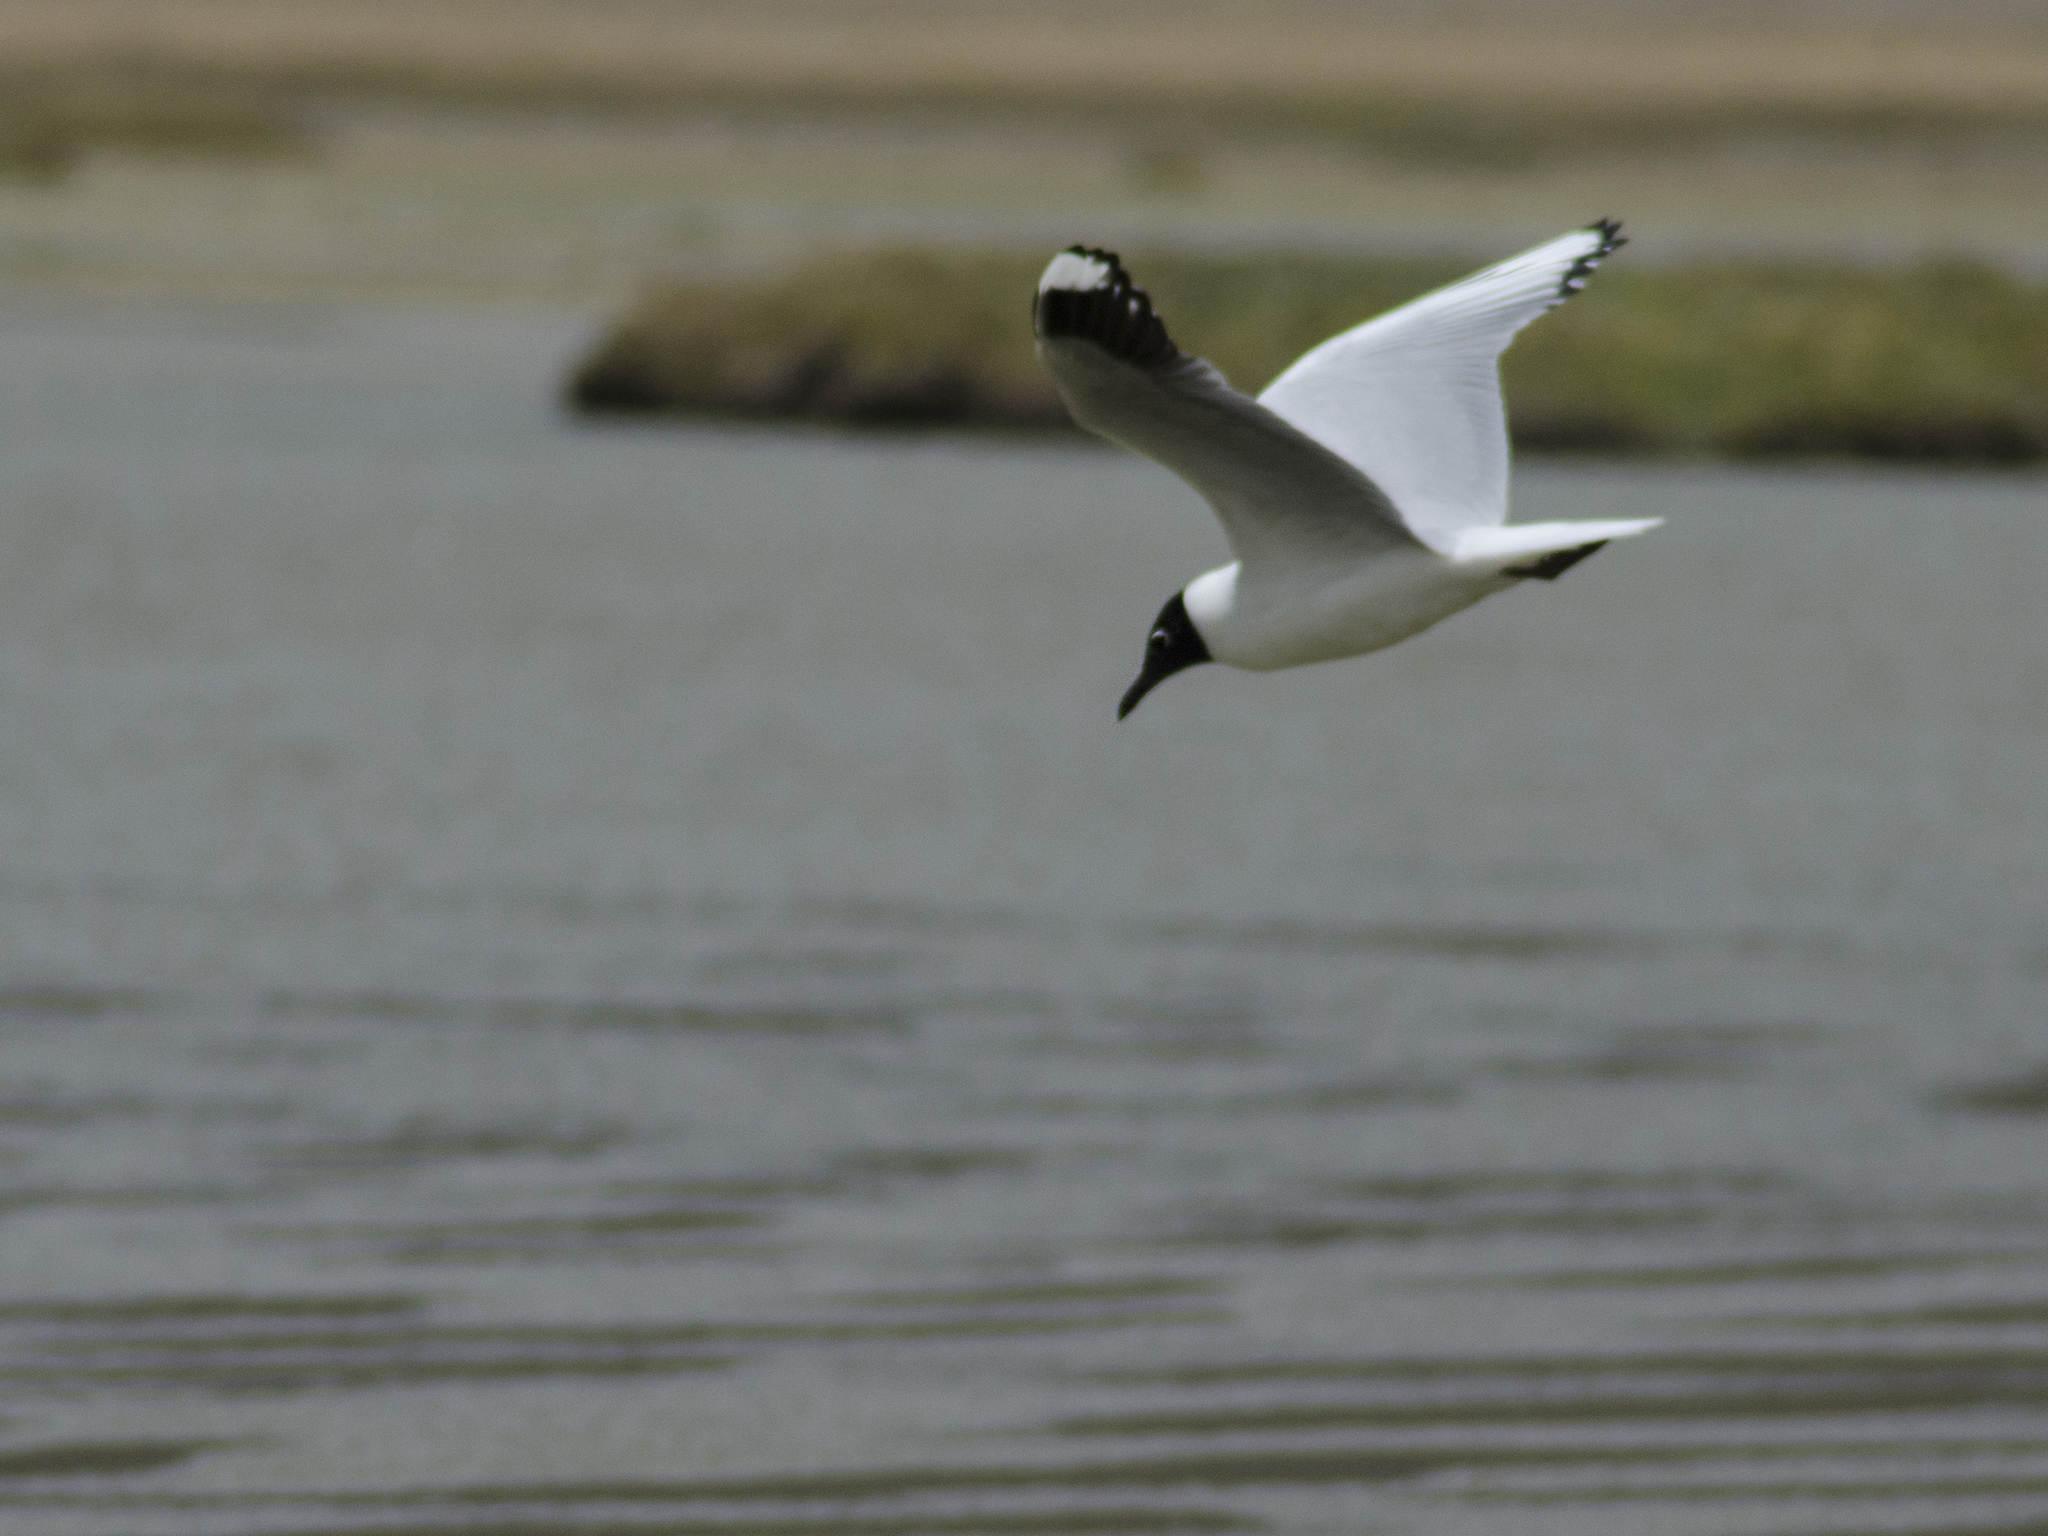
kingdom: Animalia
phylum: Chordata
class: Aves
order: Charadriiformes
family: Laridae
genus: Chroicocephalus
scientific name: Chroicocephalus serranus
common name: Andean gull
